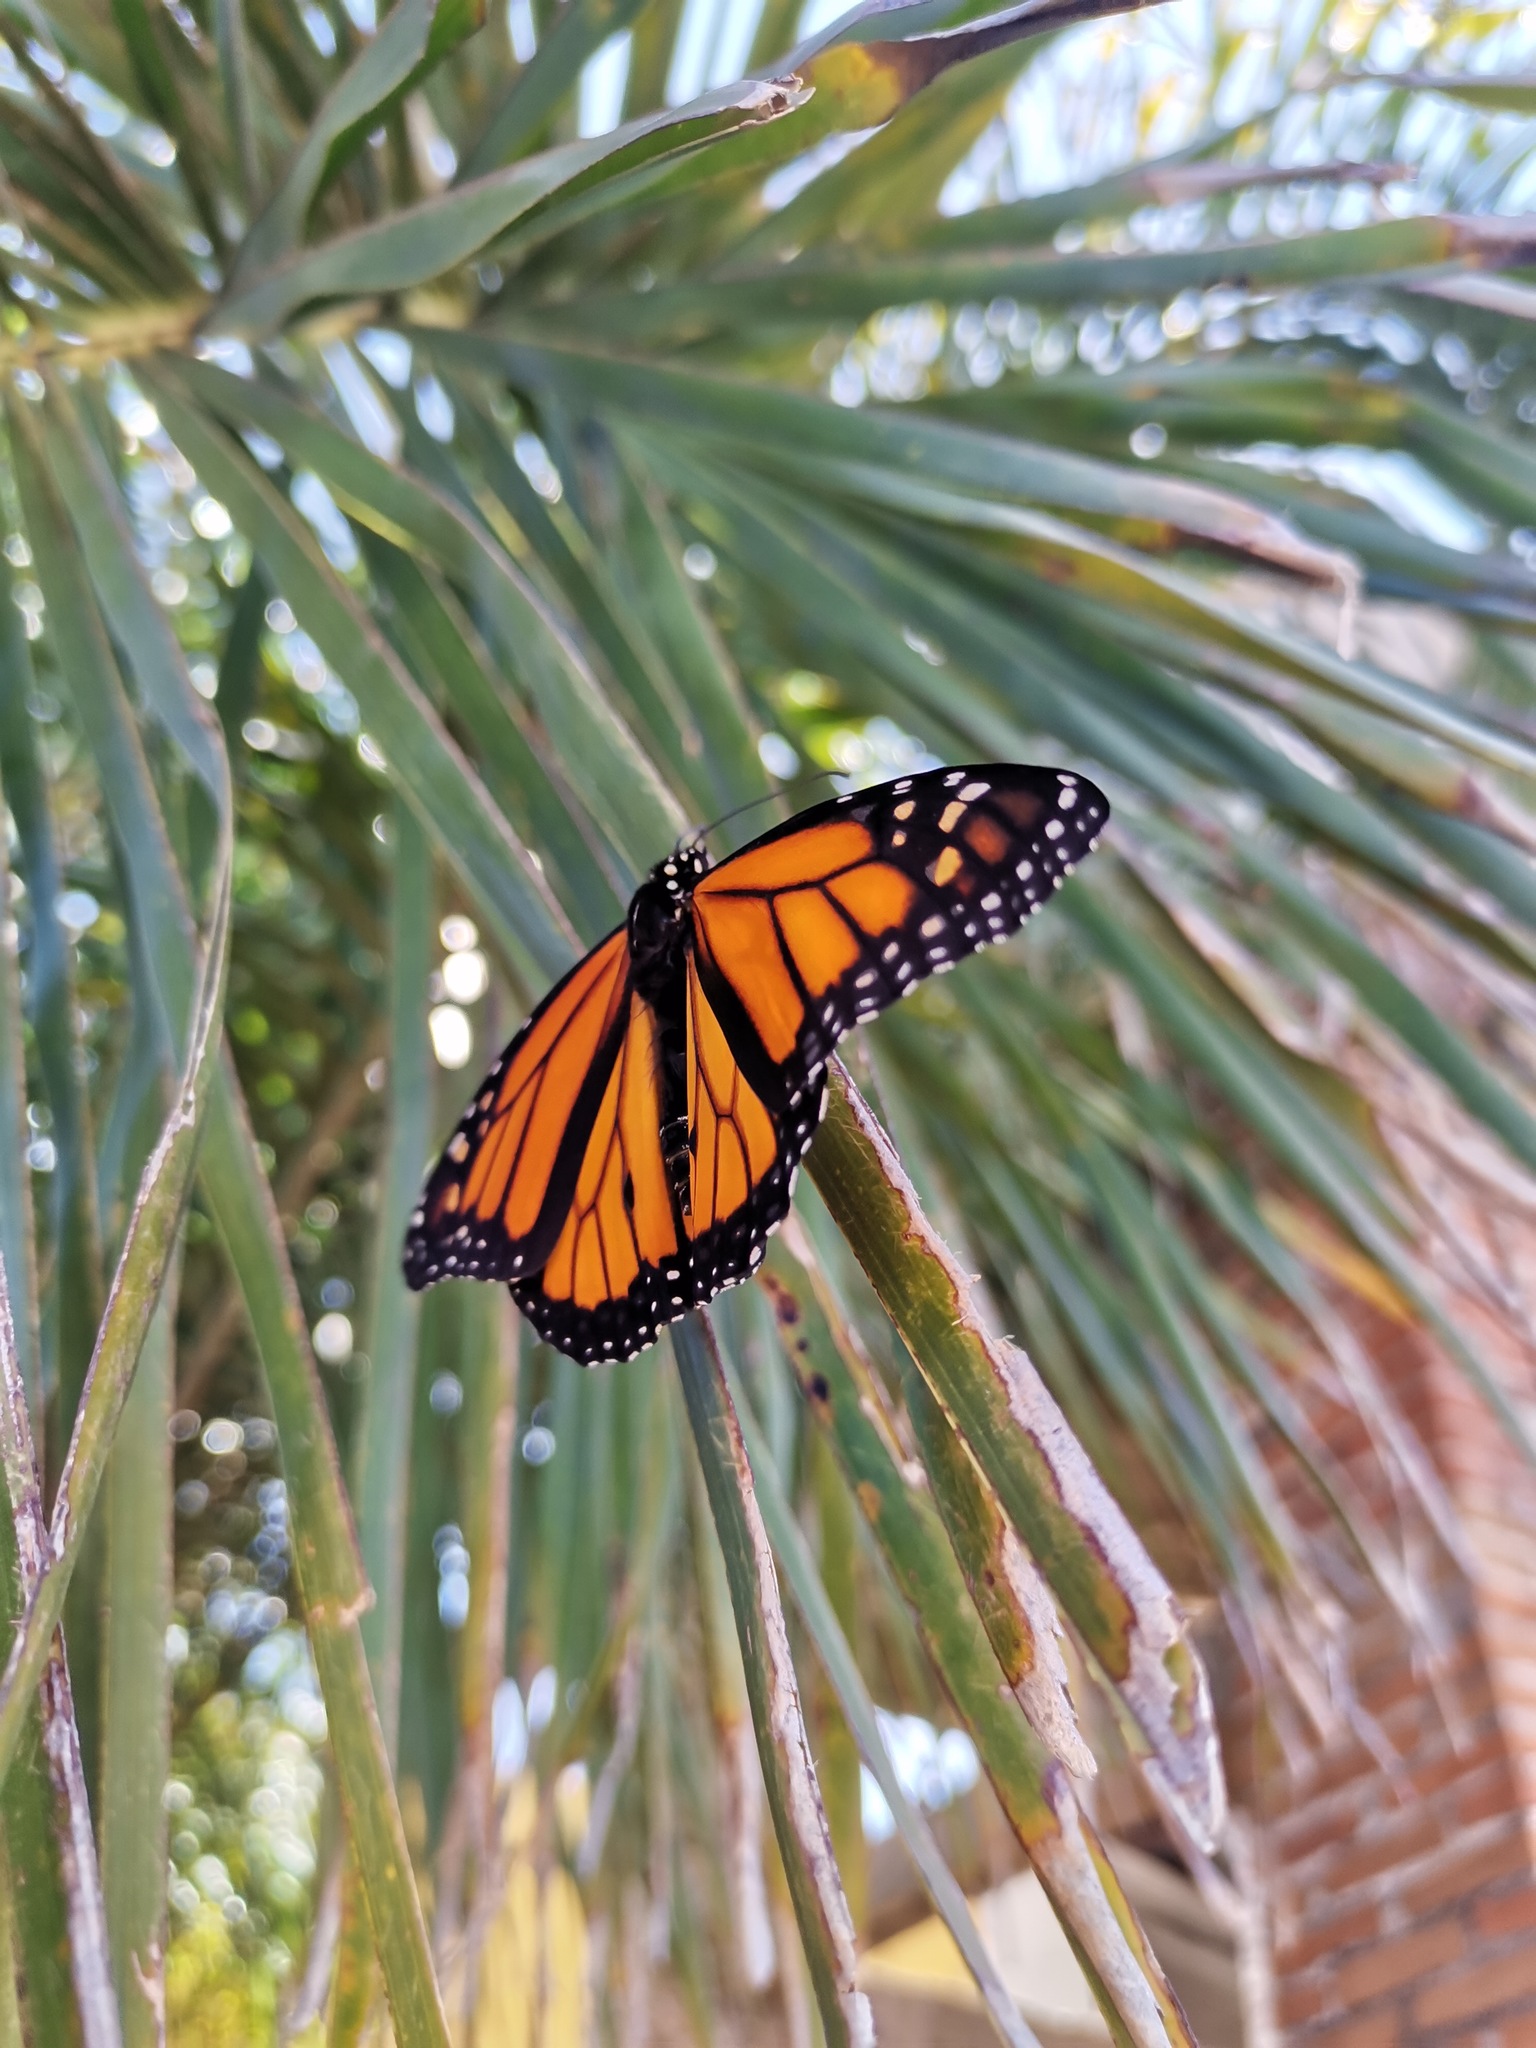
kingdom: Animalia
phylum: Arthropoda
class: Insecta
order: Lepidoptera
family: Nymphalidae
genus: Danaus
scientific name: Danaus plexippus
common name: Monarch
